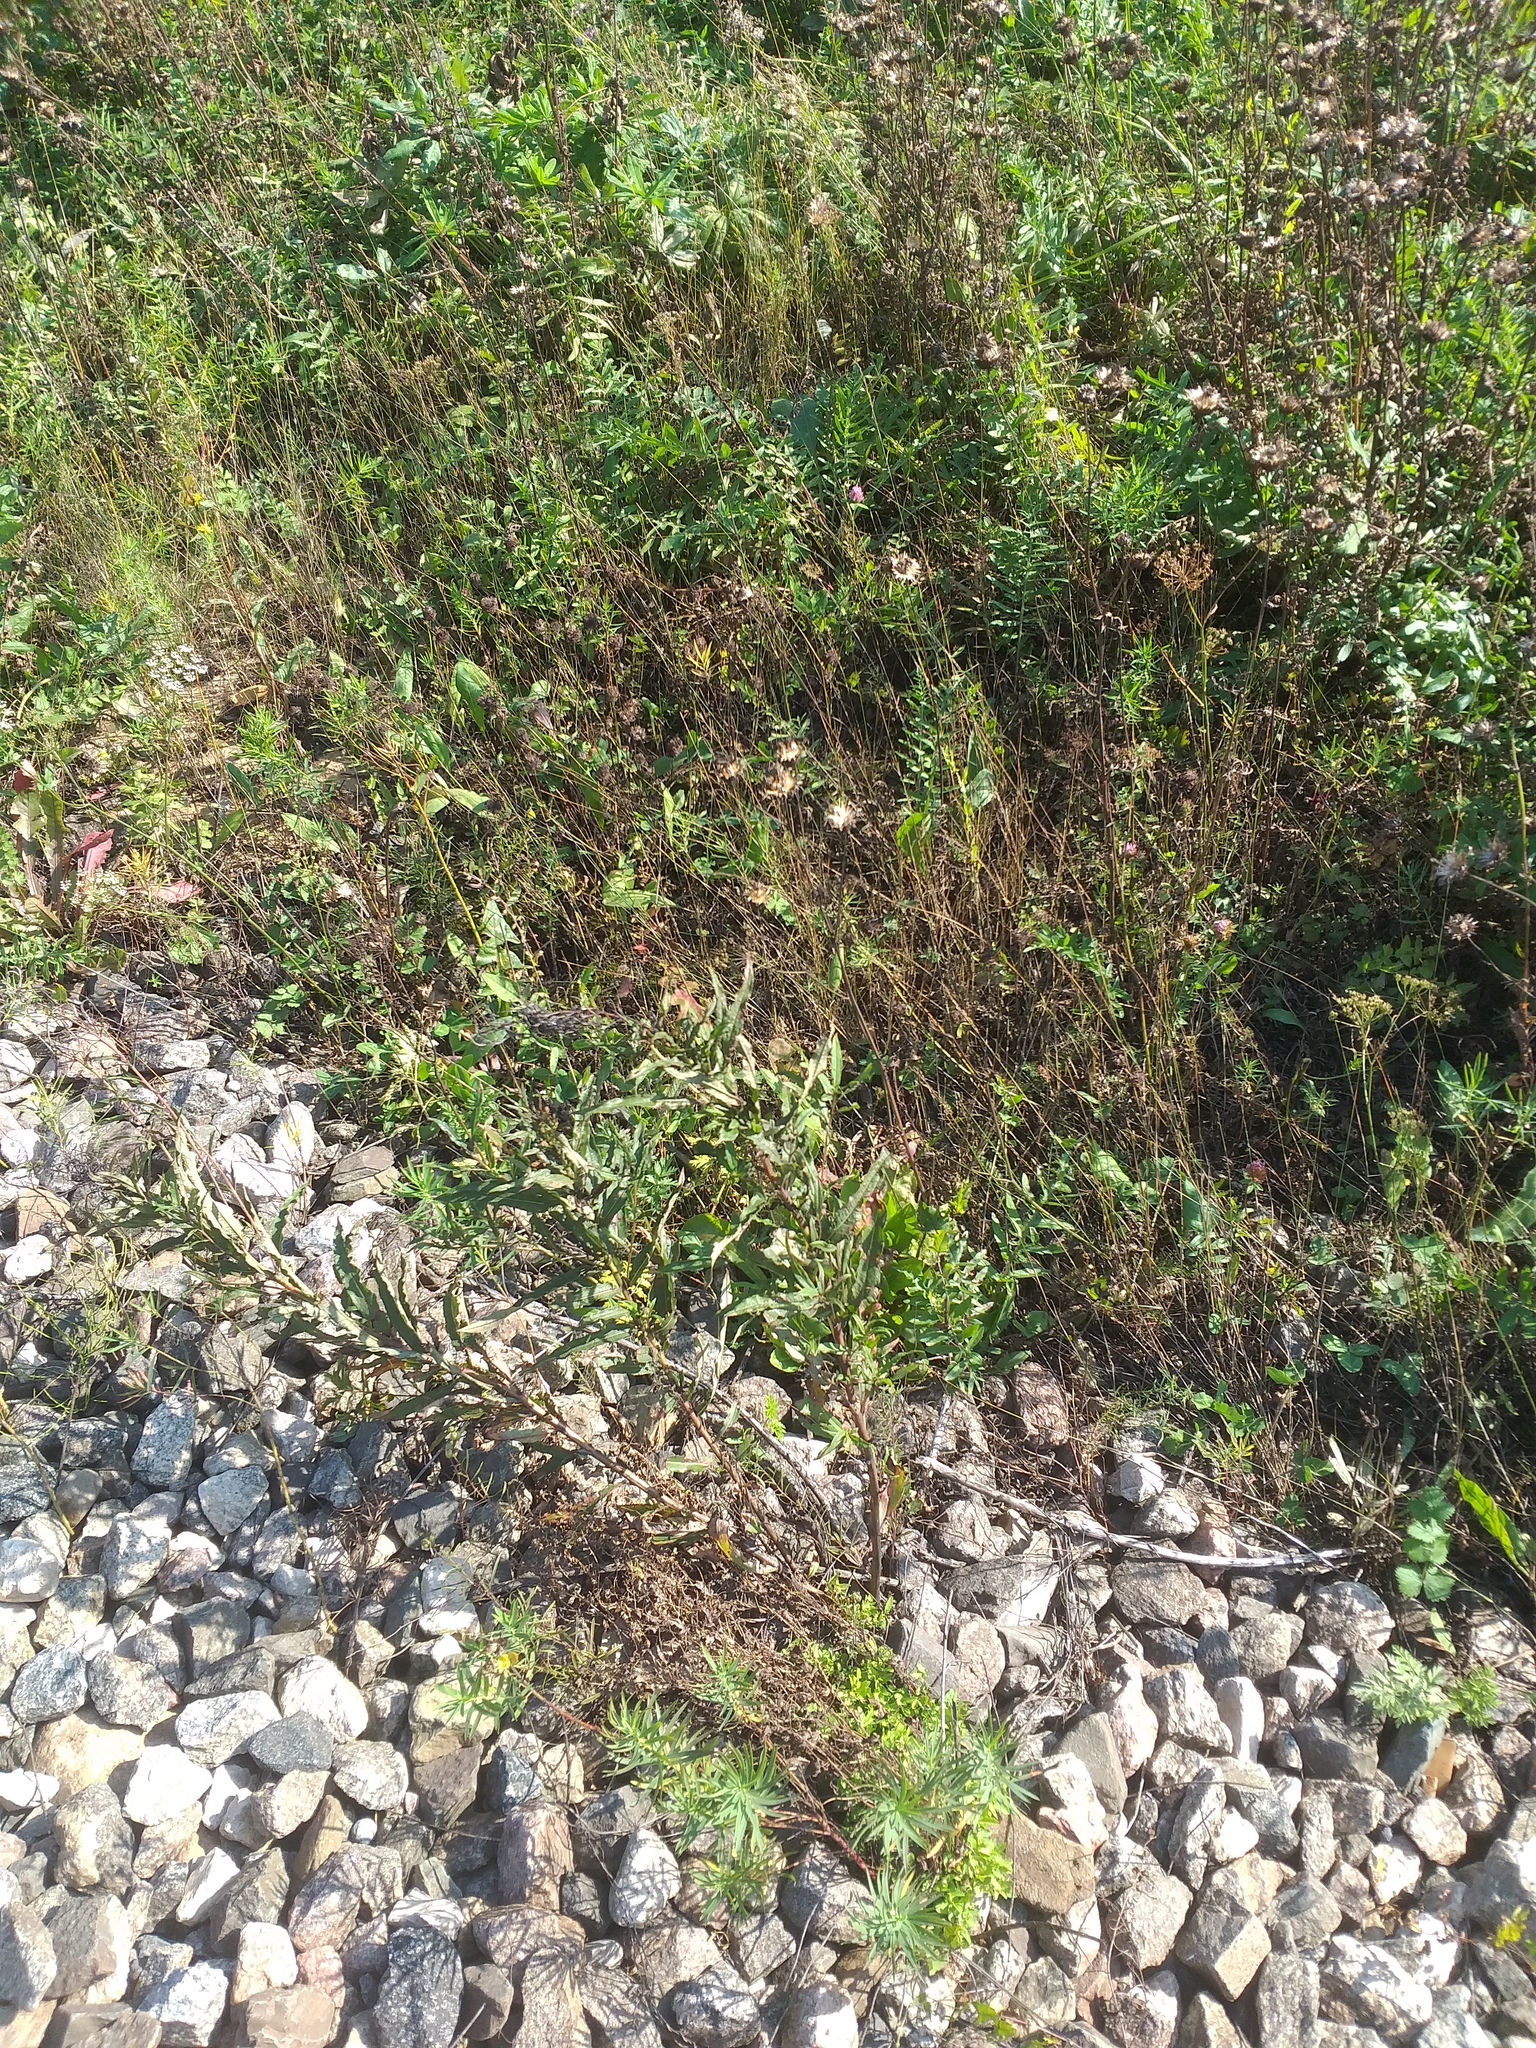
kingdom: Plantae
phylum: Tracheophyta
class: Magnoliopsida
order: Myrtales
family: Onagraceae
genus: Chamaenerion
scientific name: Chamaenerion angustifolium
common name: Fireweed
